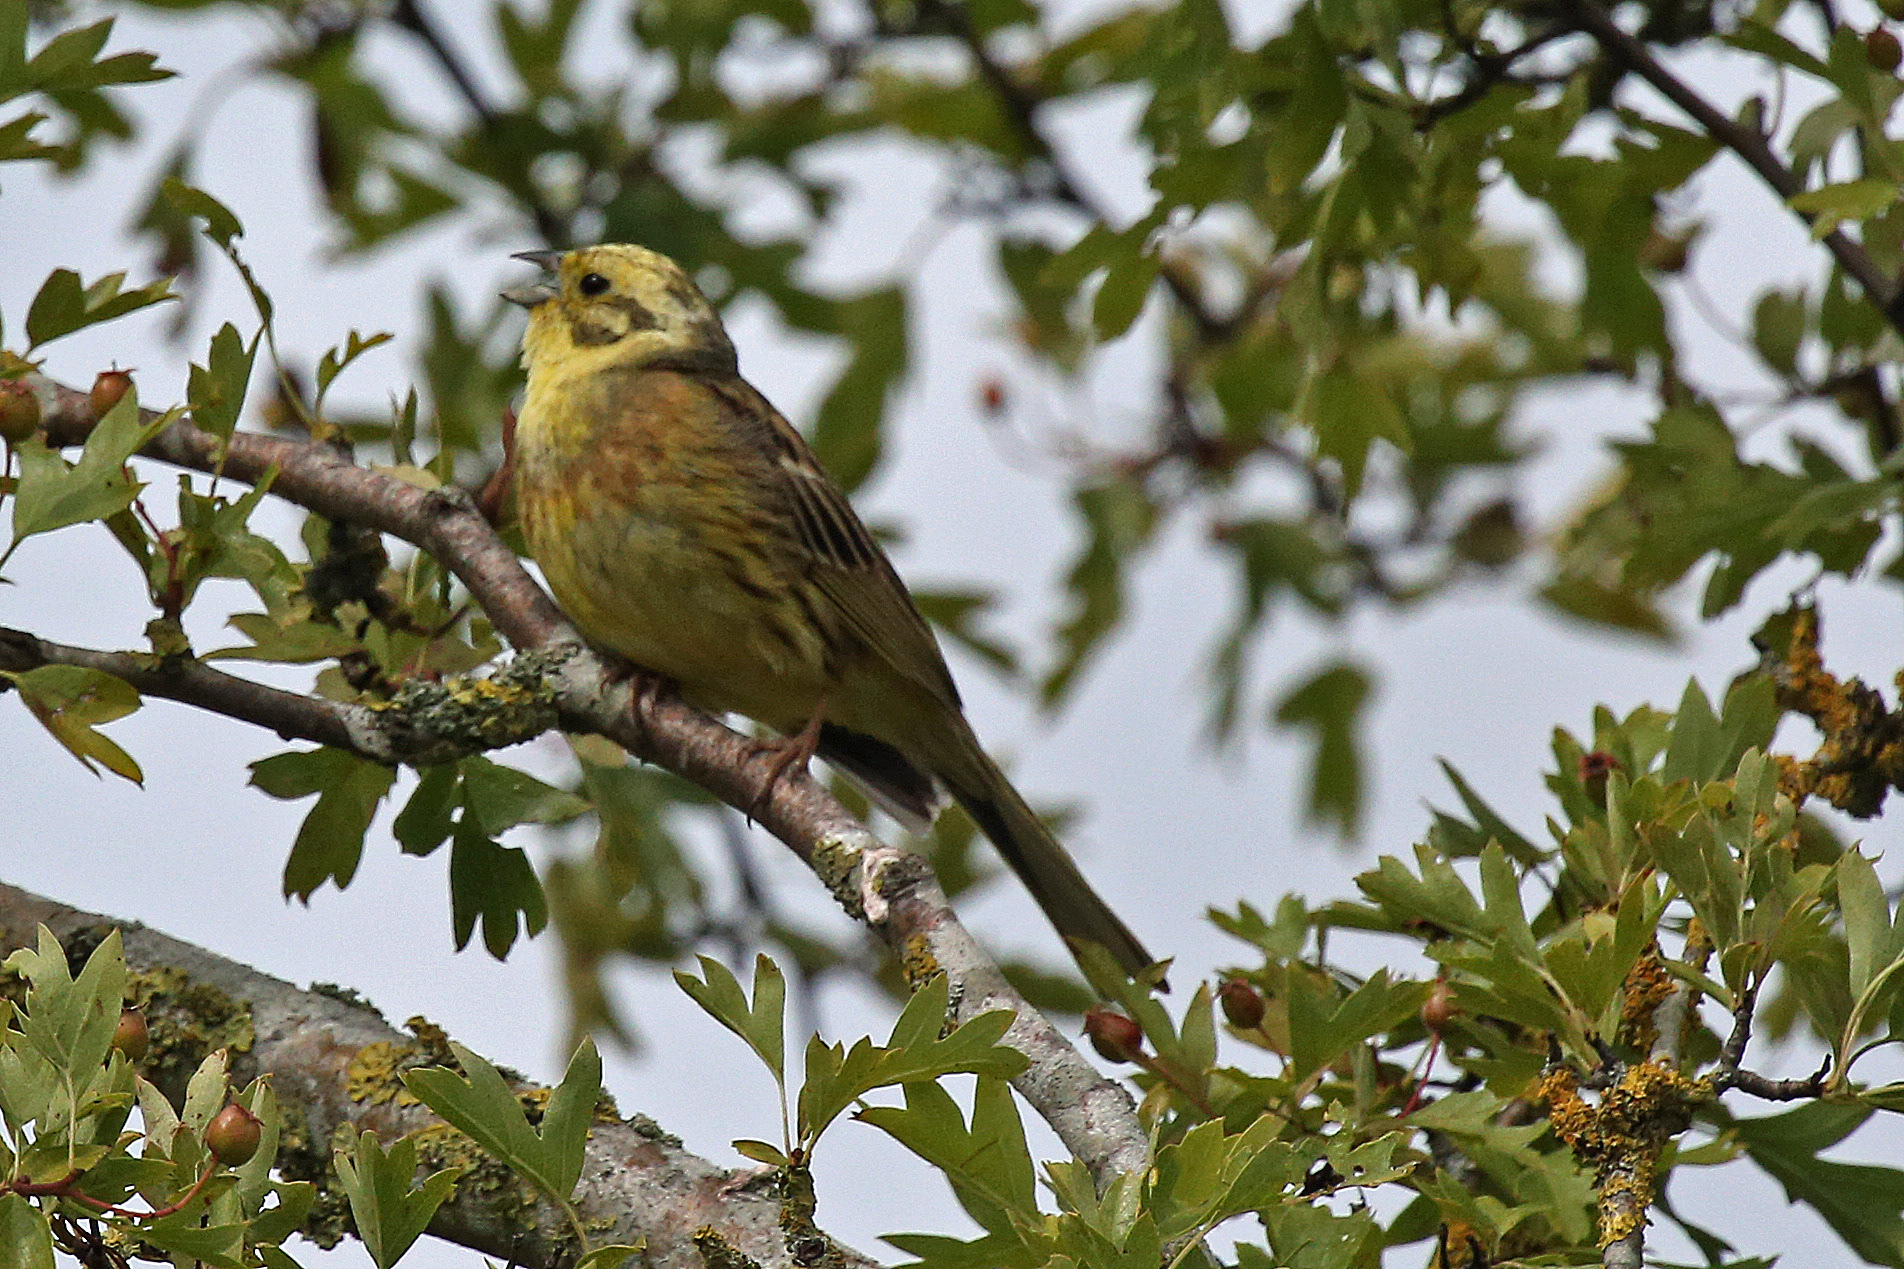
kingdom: Animalia
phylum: Chordata
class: Aves
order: Passeriformes
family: Emberizidae
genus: Emberiza
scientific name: Emberiza citrinella
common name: Yellowhammer
